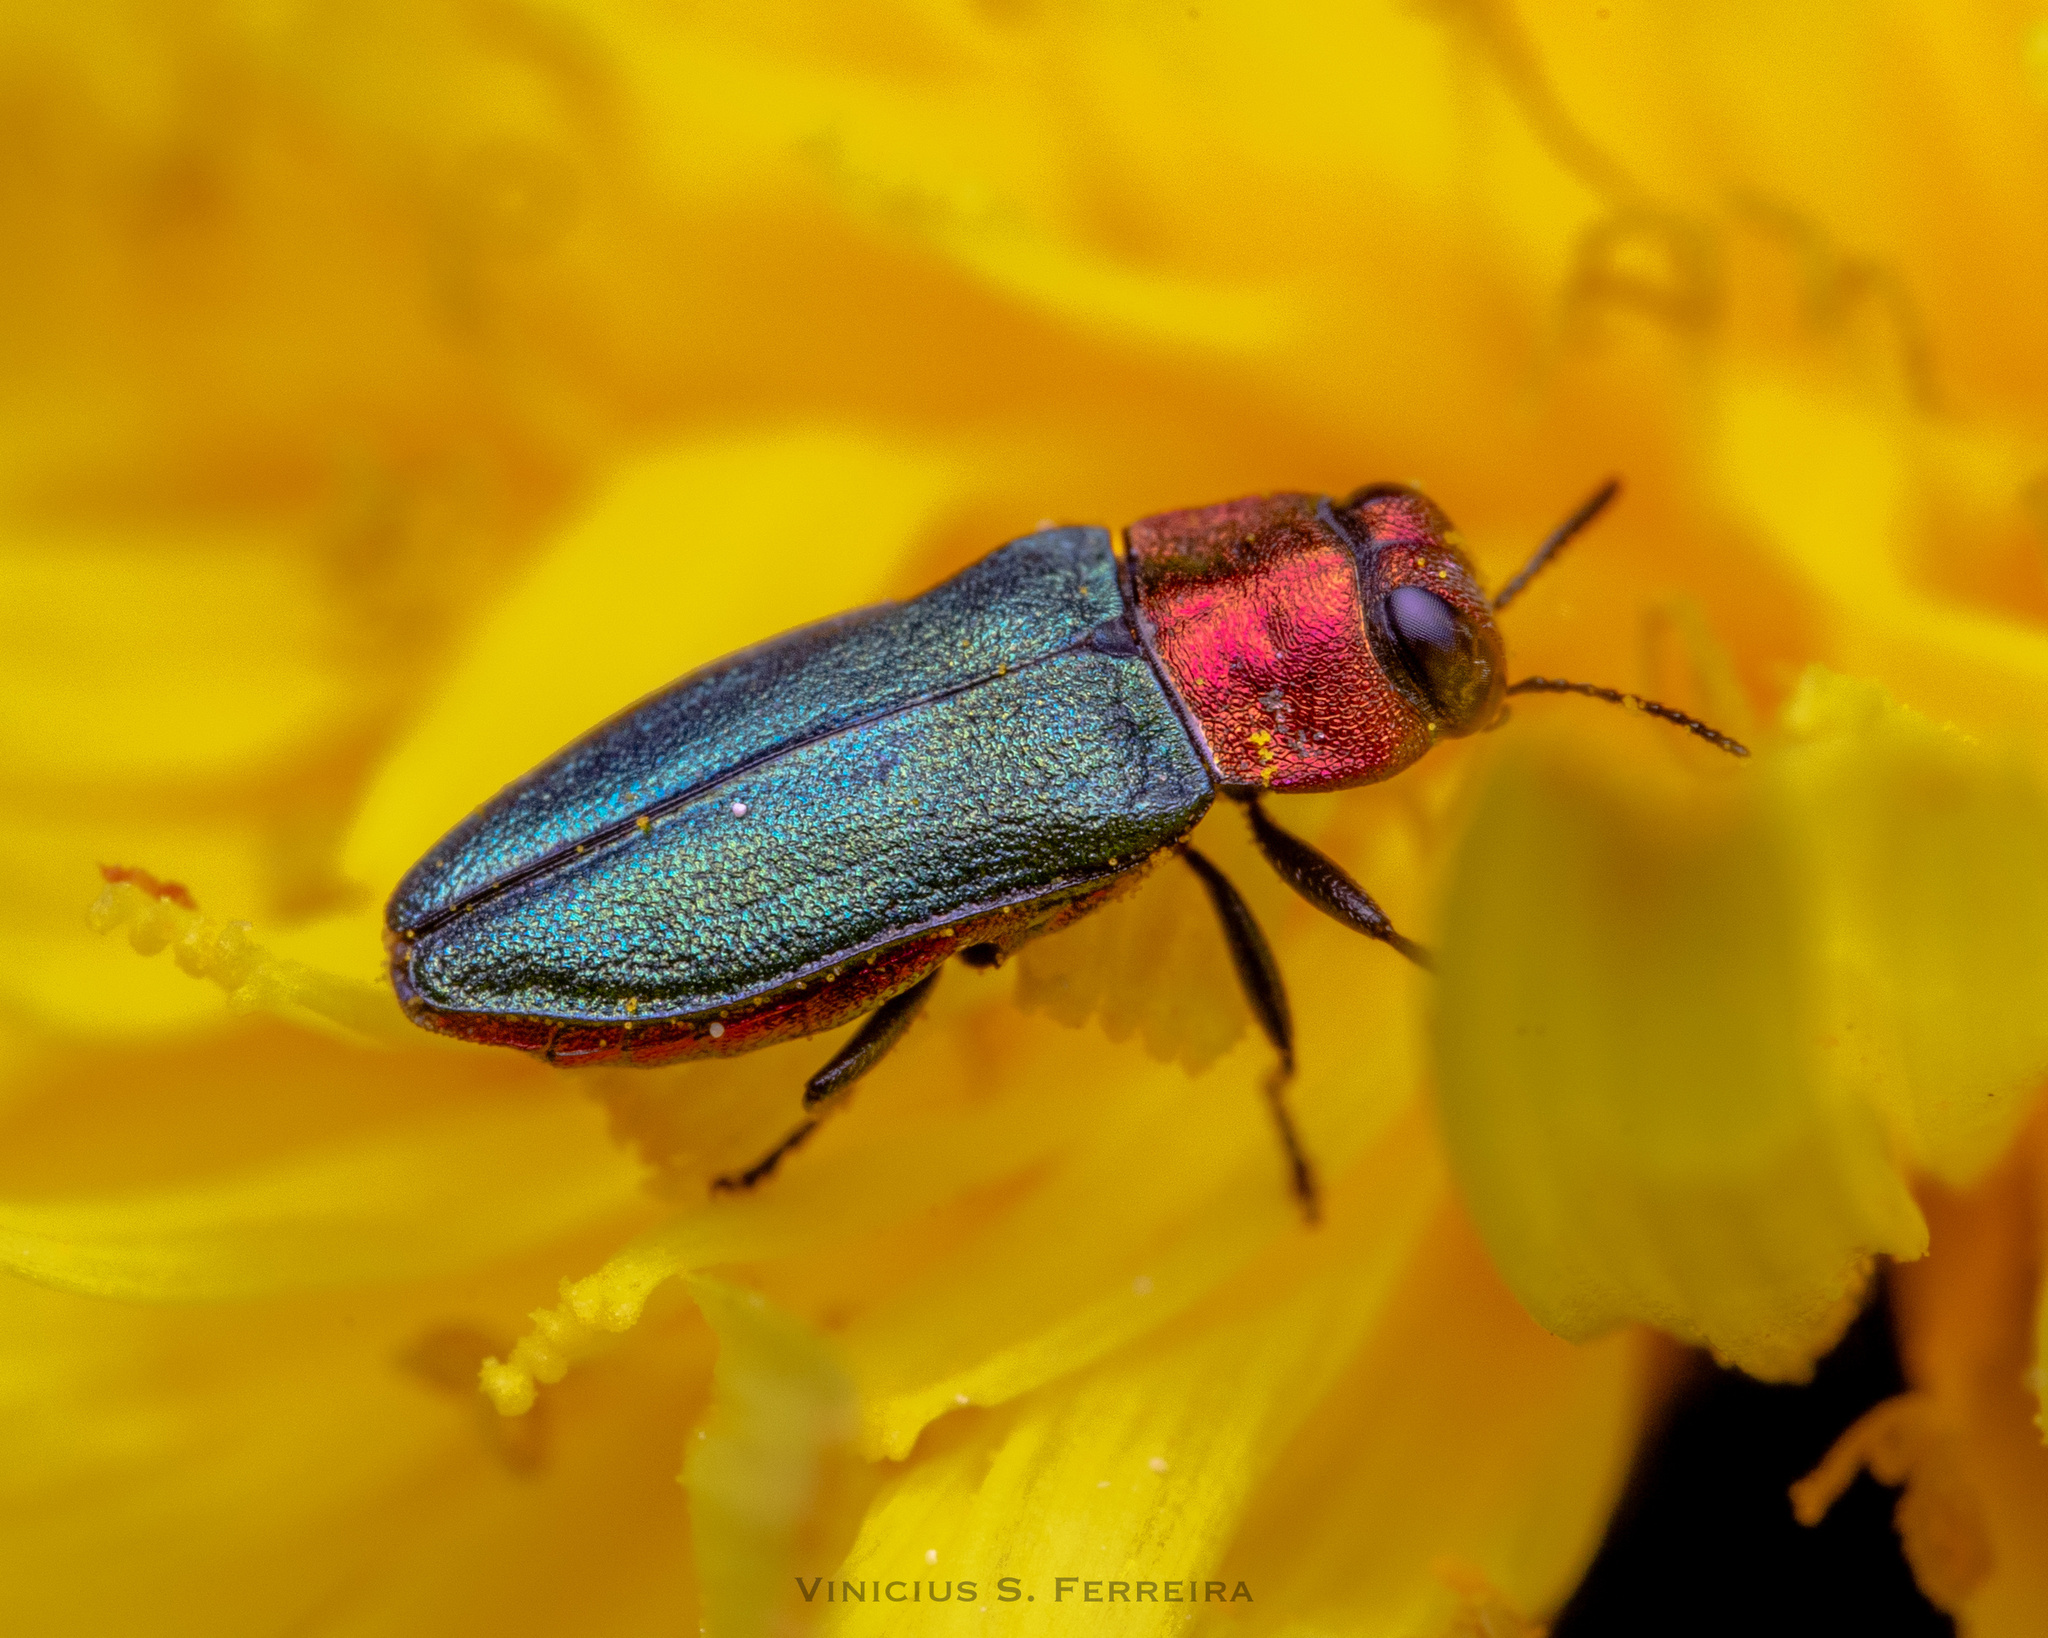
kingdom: Animalia
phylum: Arthropoda
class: Insecta
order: Coleoptera
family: Buprestidae
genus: Anthaxia
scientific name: Anthaxia nitidula
